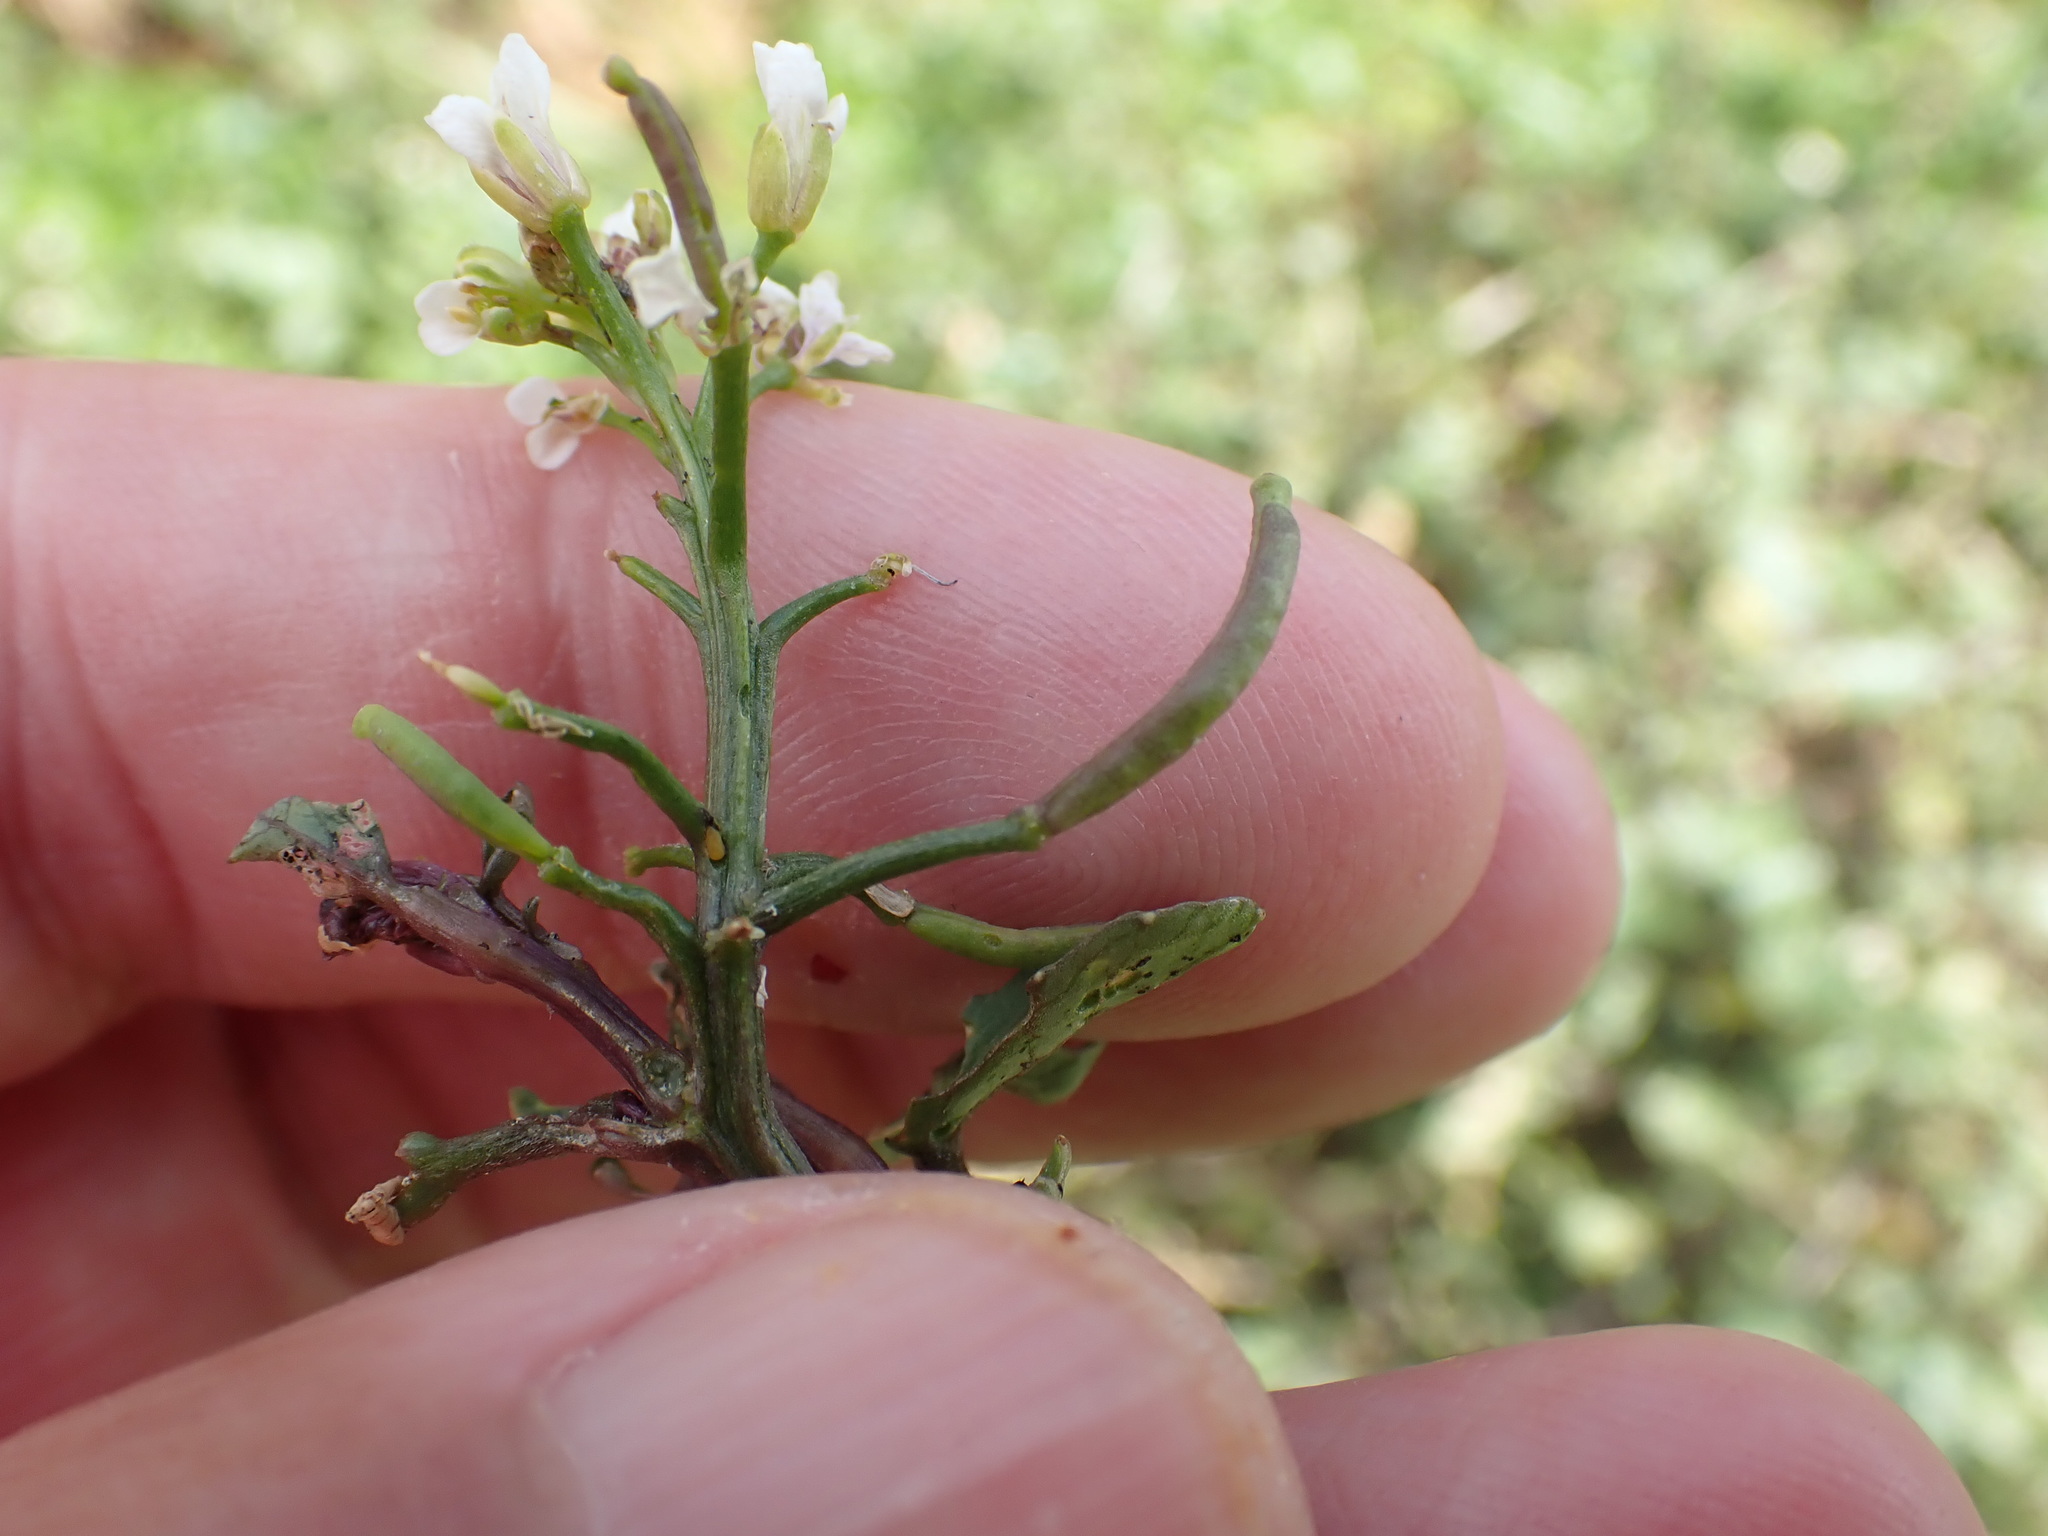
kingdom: Plantae
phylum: Tracheophyta
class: Magnoliopsida
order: Brassicales
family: Brassicaceae
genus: Nasturtium
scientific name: Nasturtium officinale
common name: Watercress
